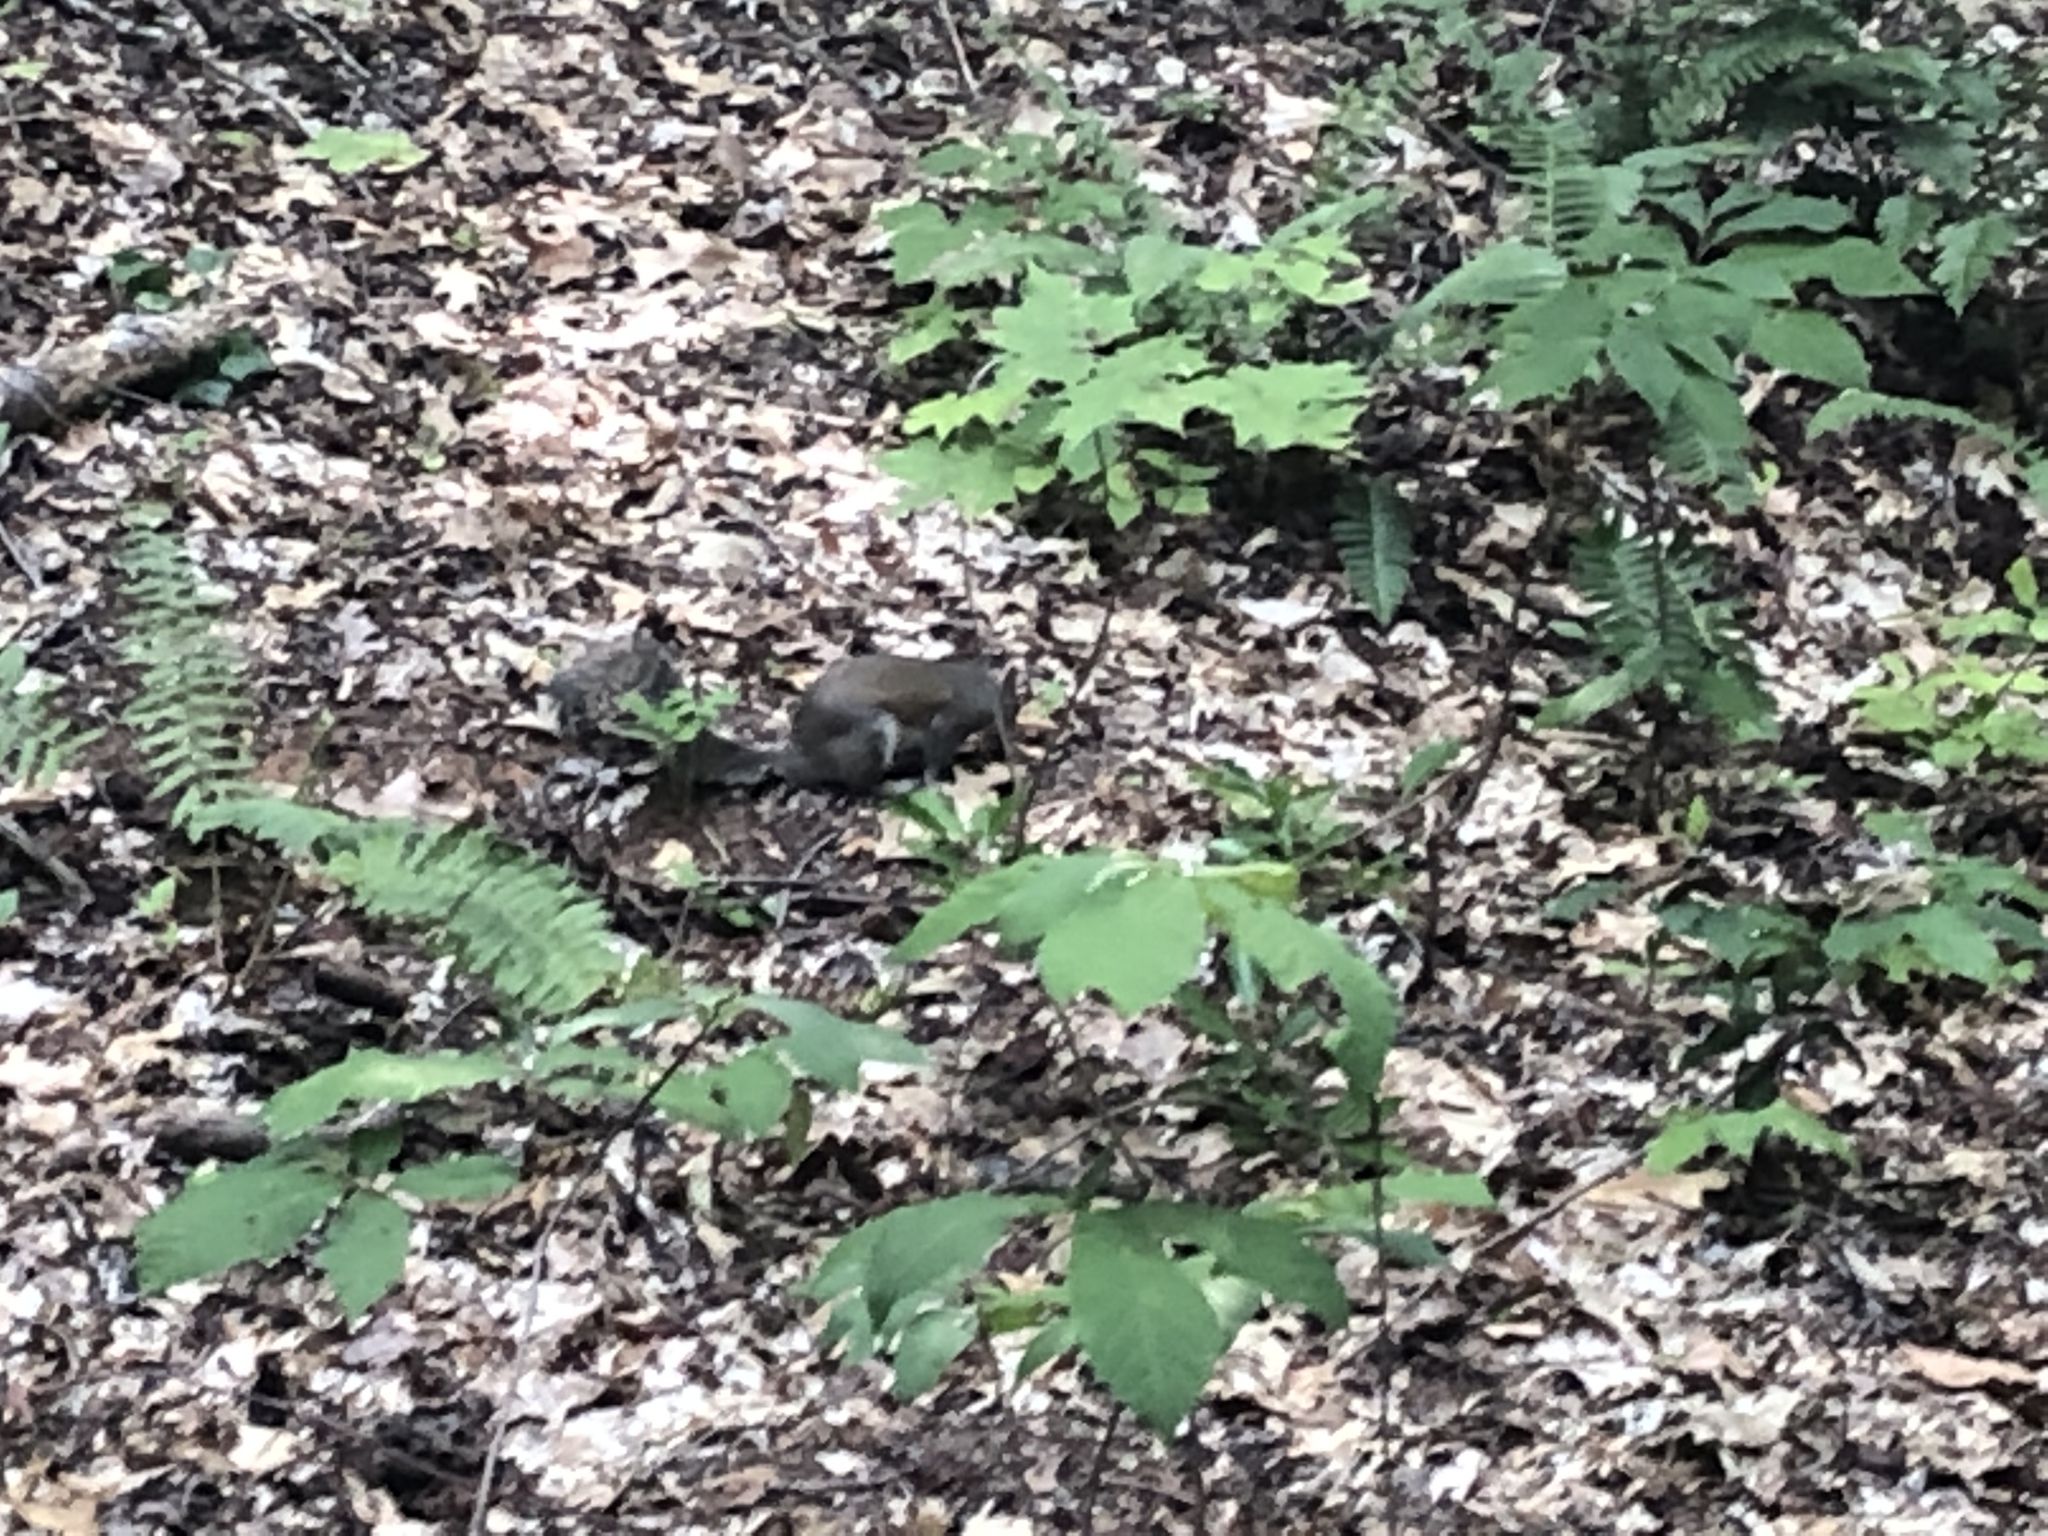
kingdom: Animalia
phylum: Chordata
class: Mammalia
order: Rodentia
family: Sciuridae
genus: Sciurus
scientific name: Sciurus carolinensis
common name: Eastern gray squirrel
